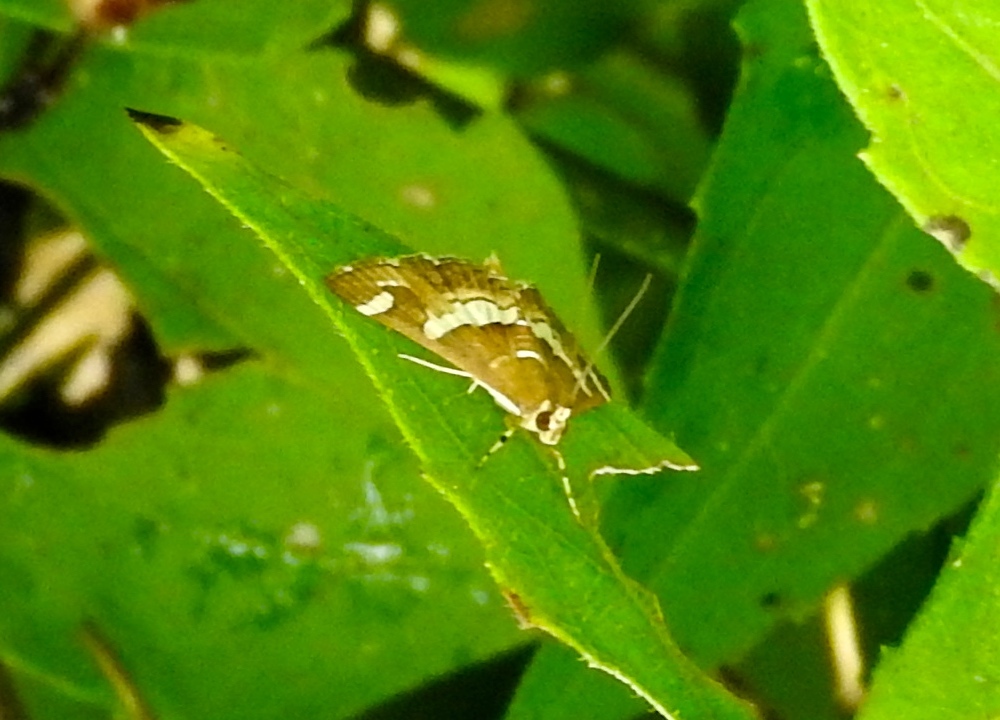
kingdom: Animalia
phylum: Arthropoda
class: Insecta
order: Lepidoptera
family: Crambidae
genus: Spoladea
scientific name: Spoladea recurvalis
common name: Beet webworm moth
